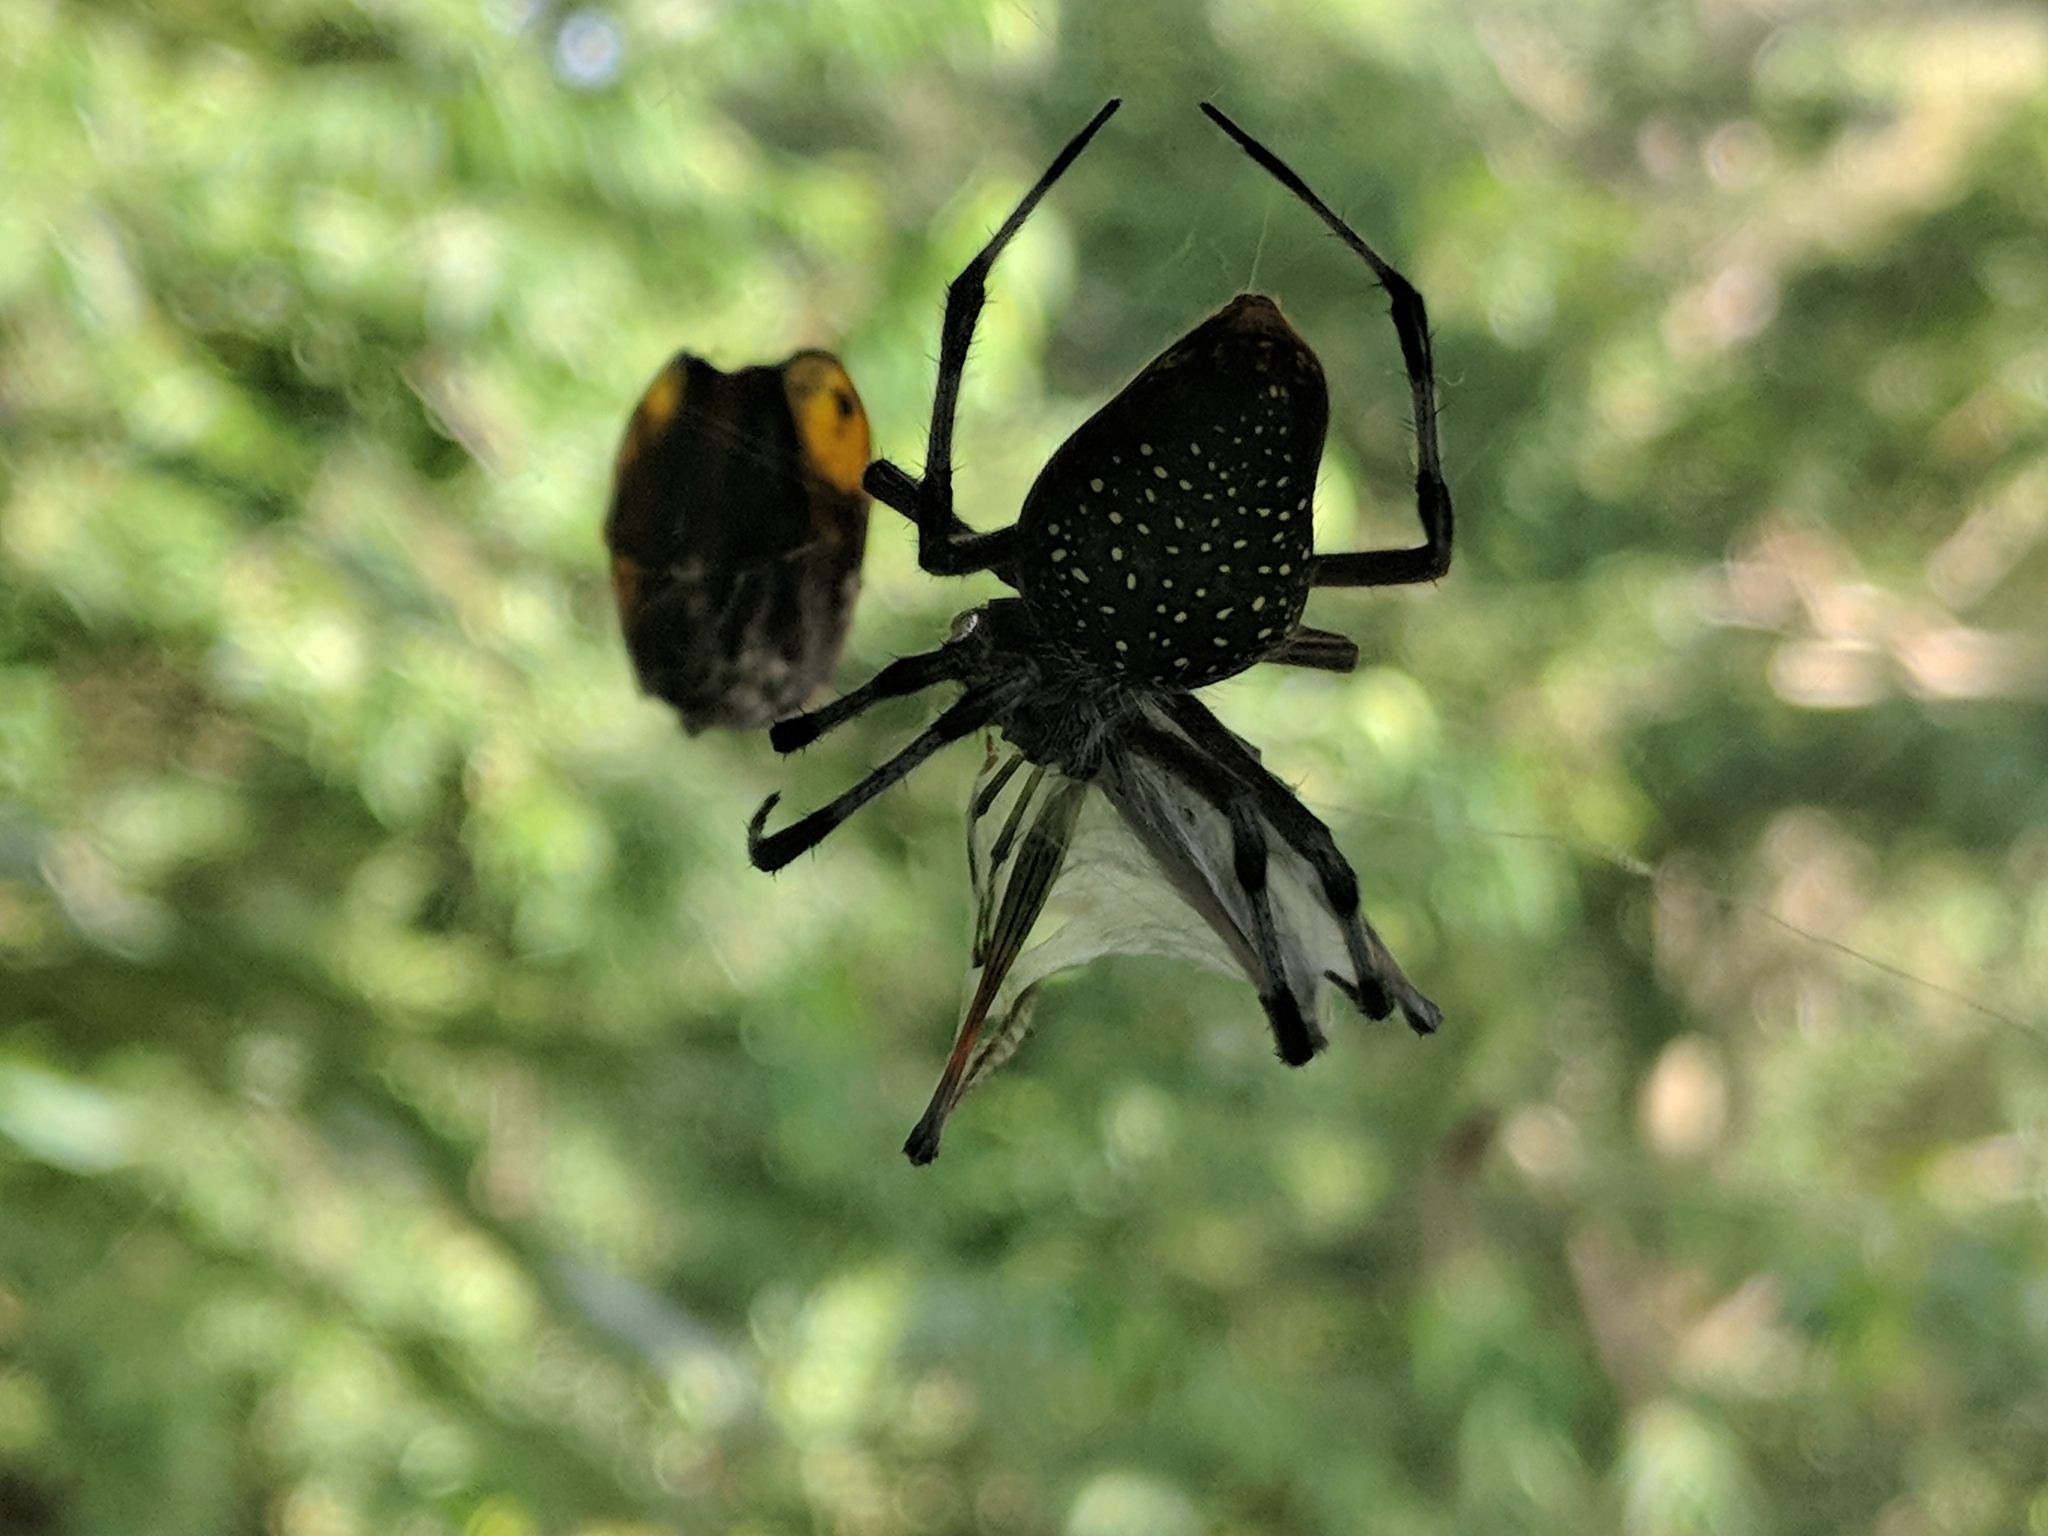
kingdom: Animalia
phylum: Arthropoda
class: Arachnida
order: Araneae
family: Araneidae
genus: Eriophora
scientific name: Eriophora nephiloides
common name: Orb weavers
